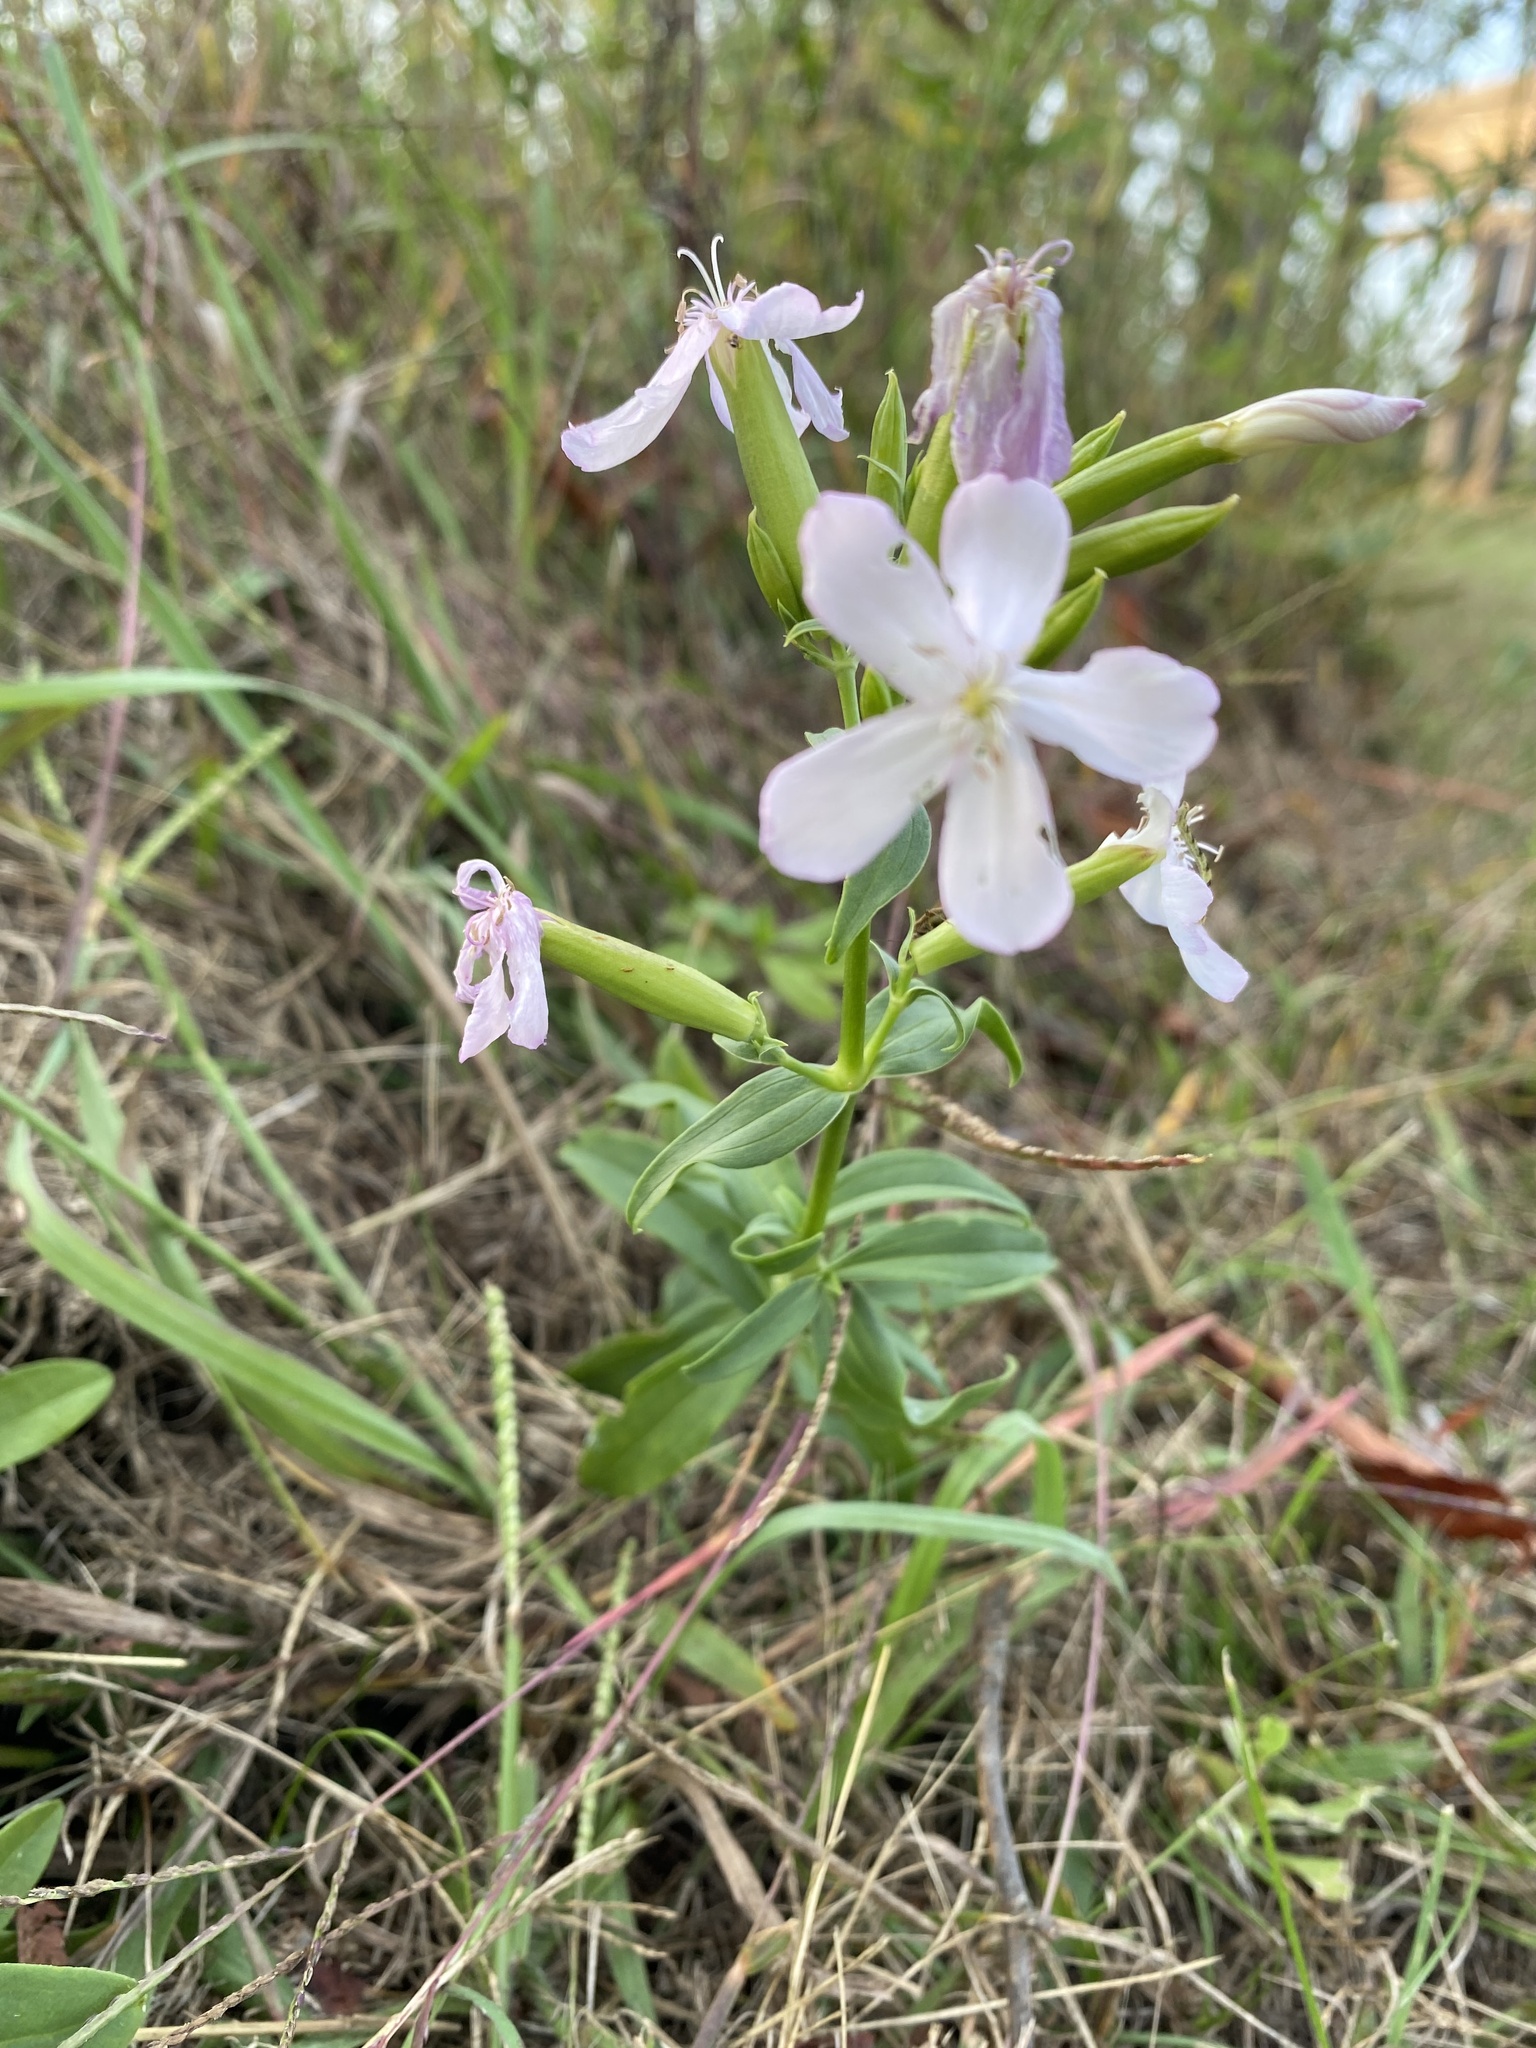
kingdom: Plantae
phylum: Tracheophyta
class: Magnoliopsida
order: Caryophyllales
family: Caryophyllaceae
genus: Saponaria
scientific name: Saponaria officinalis
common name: Soapwort
